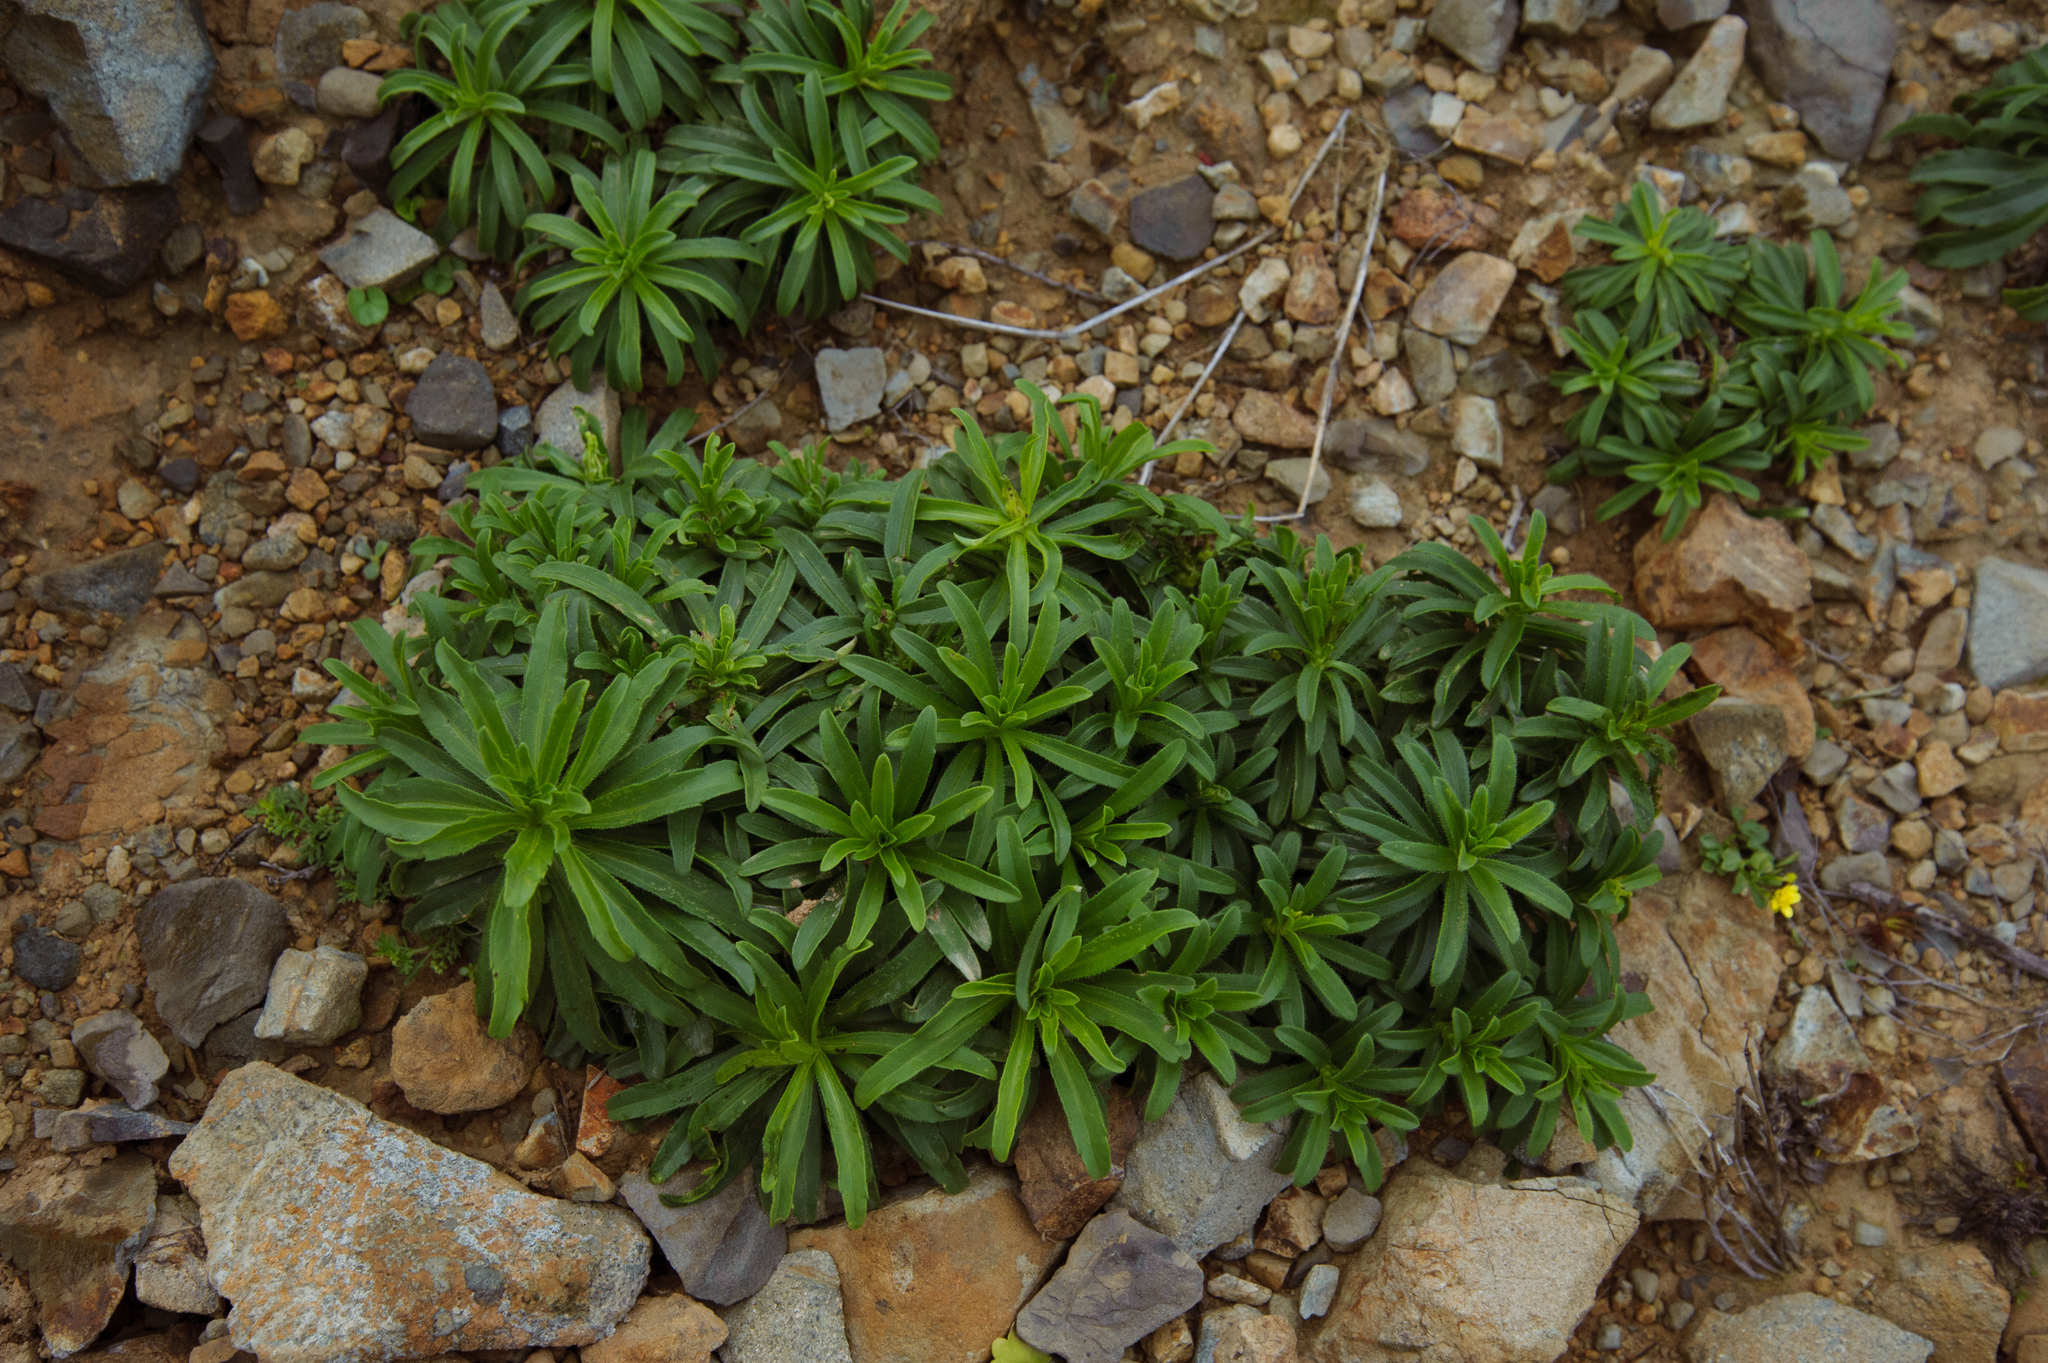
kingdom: Plantae
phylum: Tracheophyta
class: Magnoliopsida
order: Asterales
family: Asteraceae
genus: Heteropappus
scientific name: Heteropappus ciliosus
